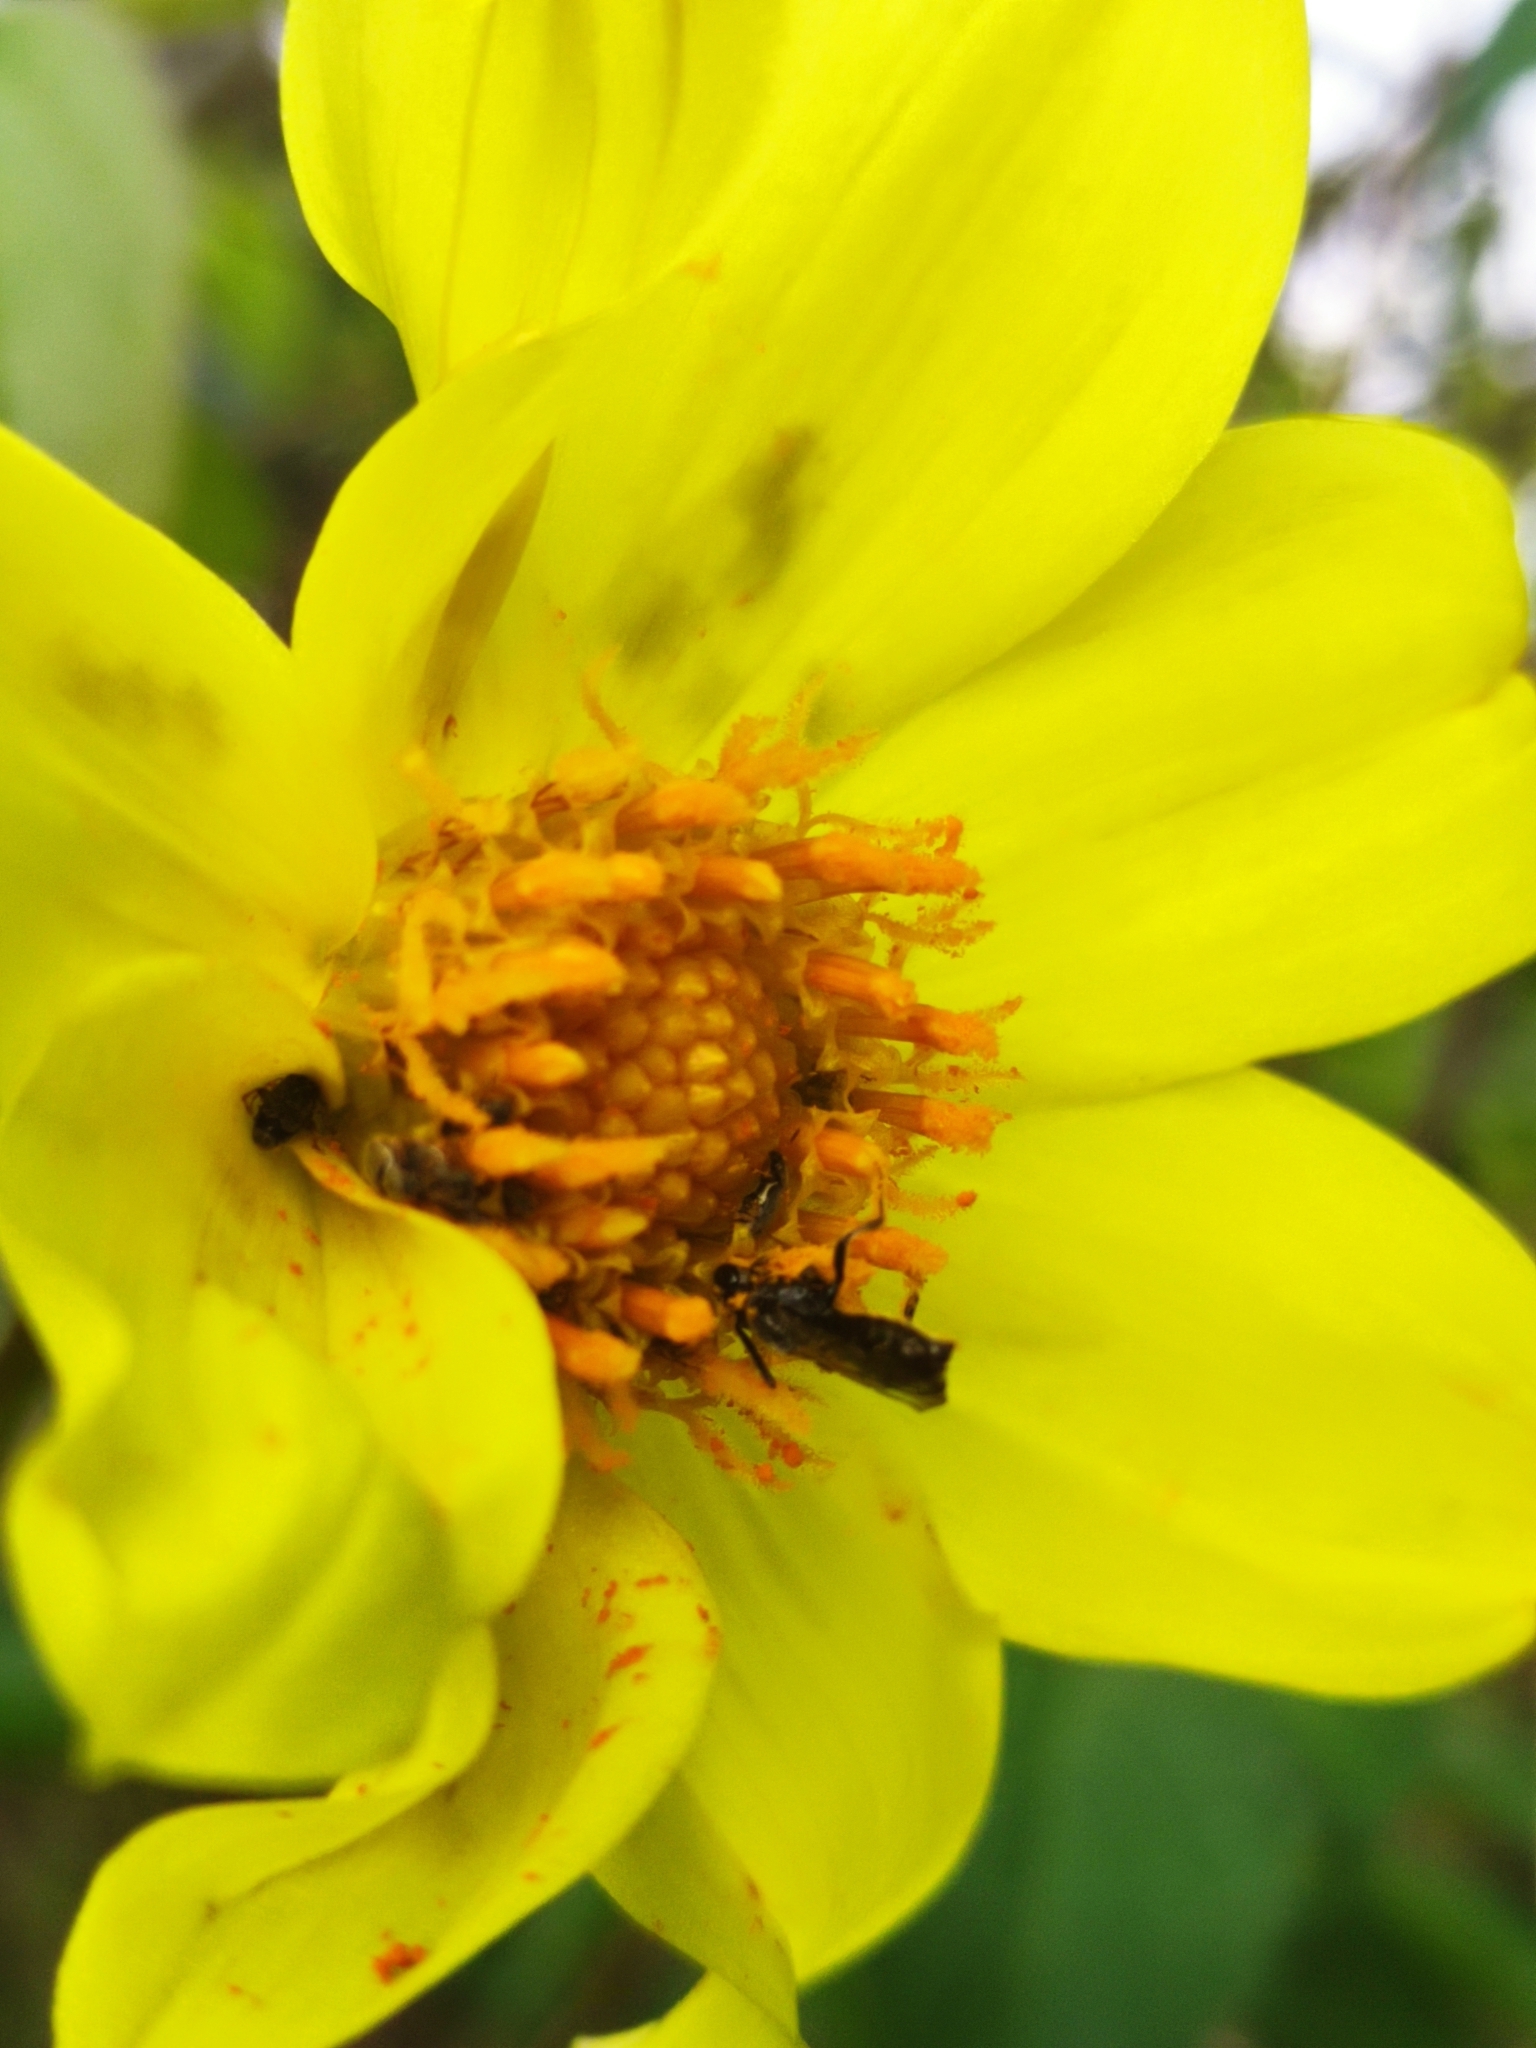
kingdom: Plantae
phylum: Tracheophyta
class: Magnoliopsida
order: Asterales
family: Asteraceae
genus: Dahlia
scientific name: Dahlia coccinea
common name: Red dahlia
